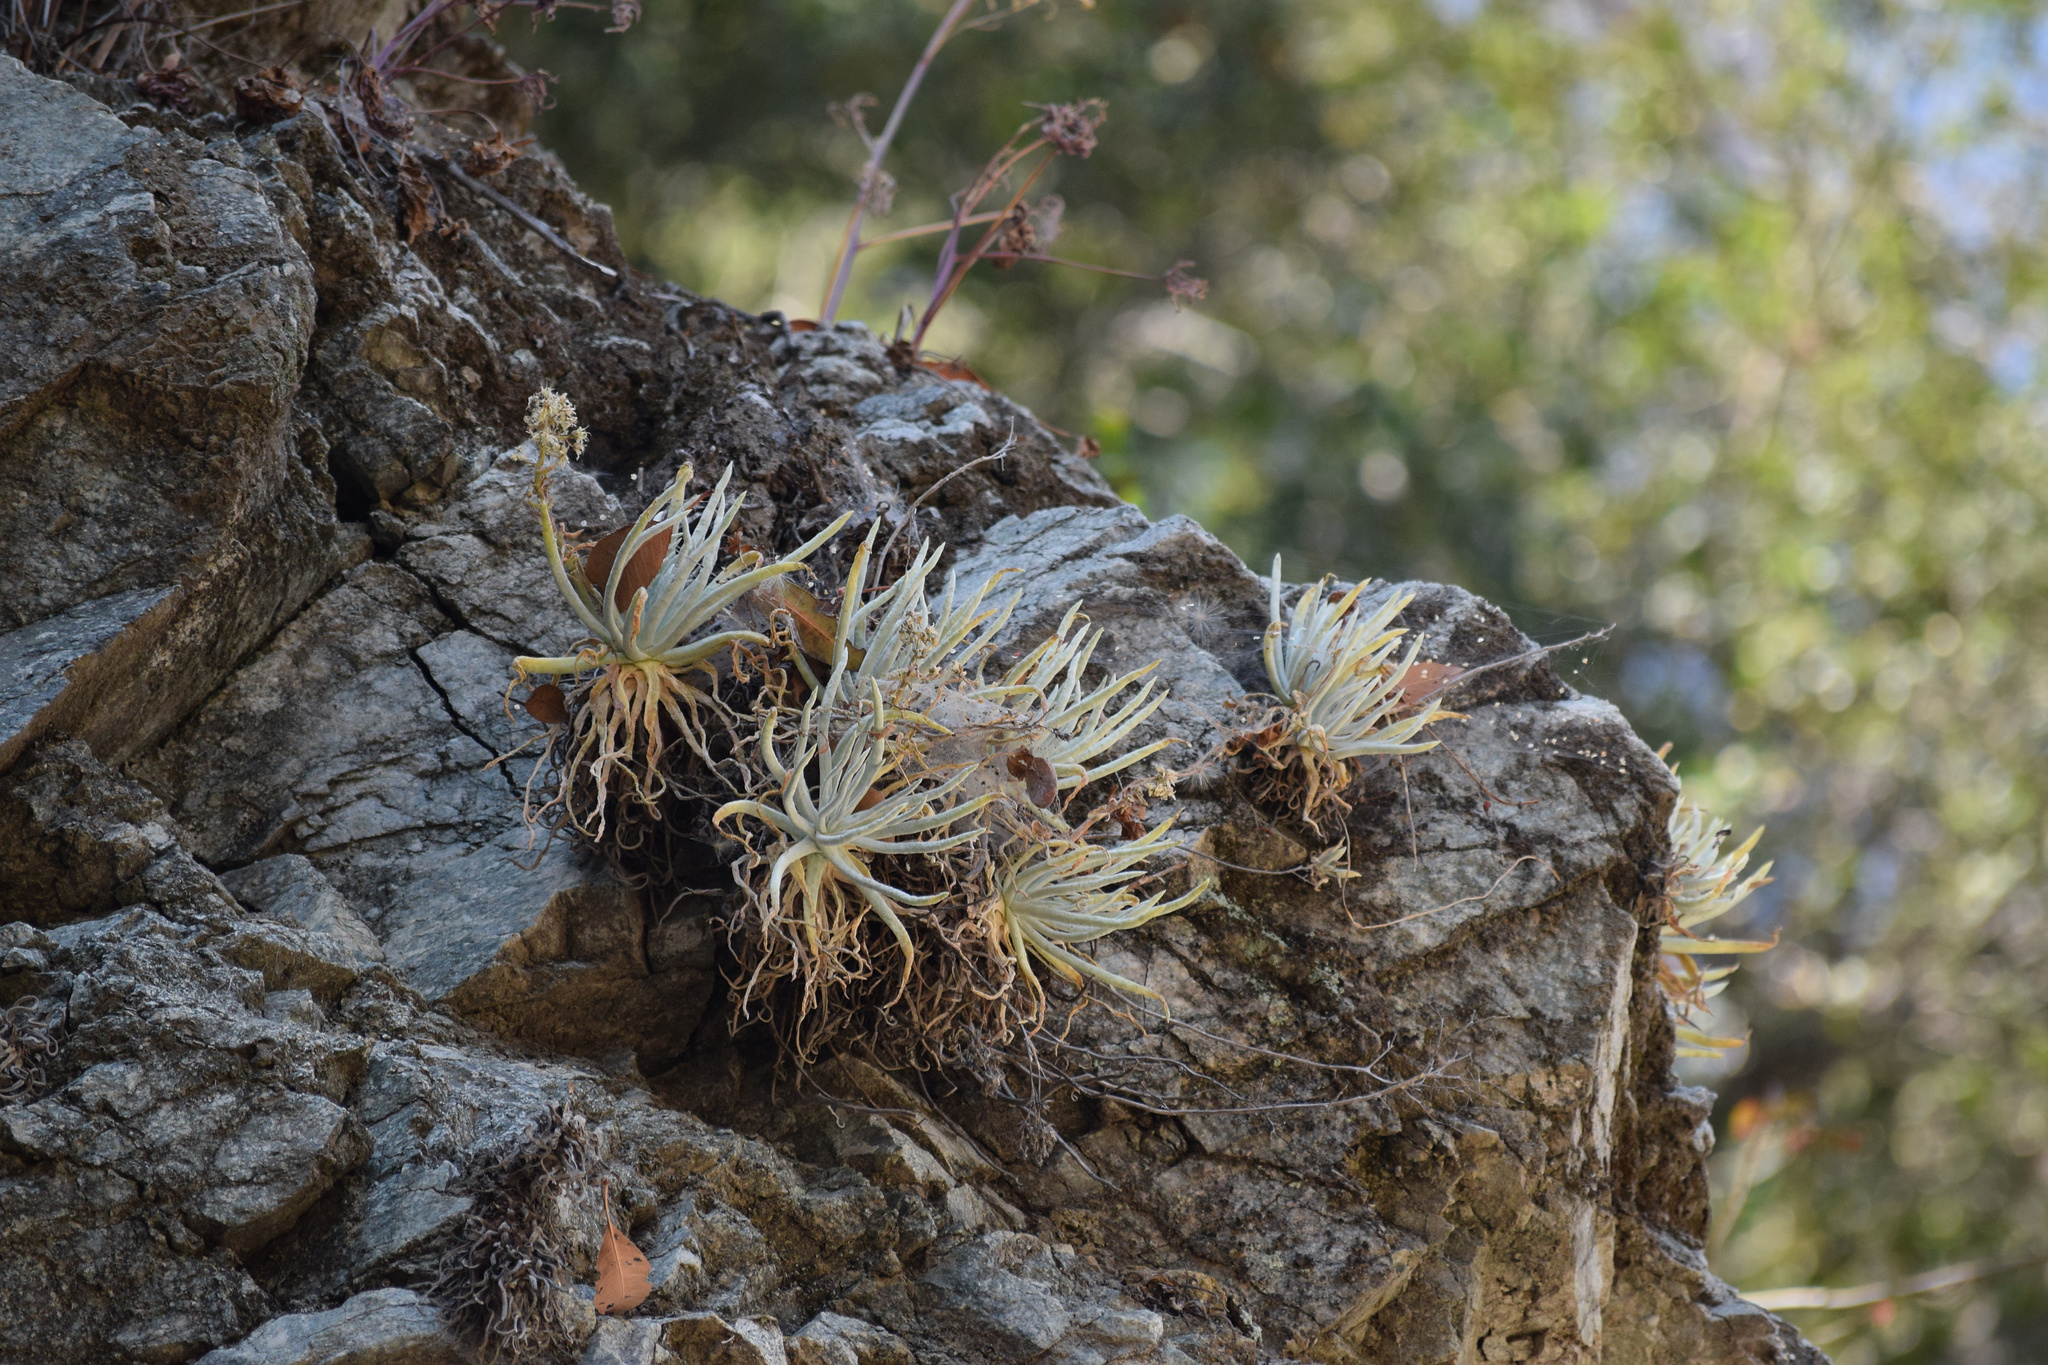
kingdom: Plantae
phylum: Tracheophyta
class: Magnoliopsida
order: Saxifragales
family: Crassulaceae
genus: Dudleya
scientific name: Dudleya densiflora
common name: San gabriel mountains dudleya
